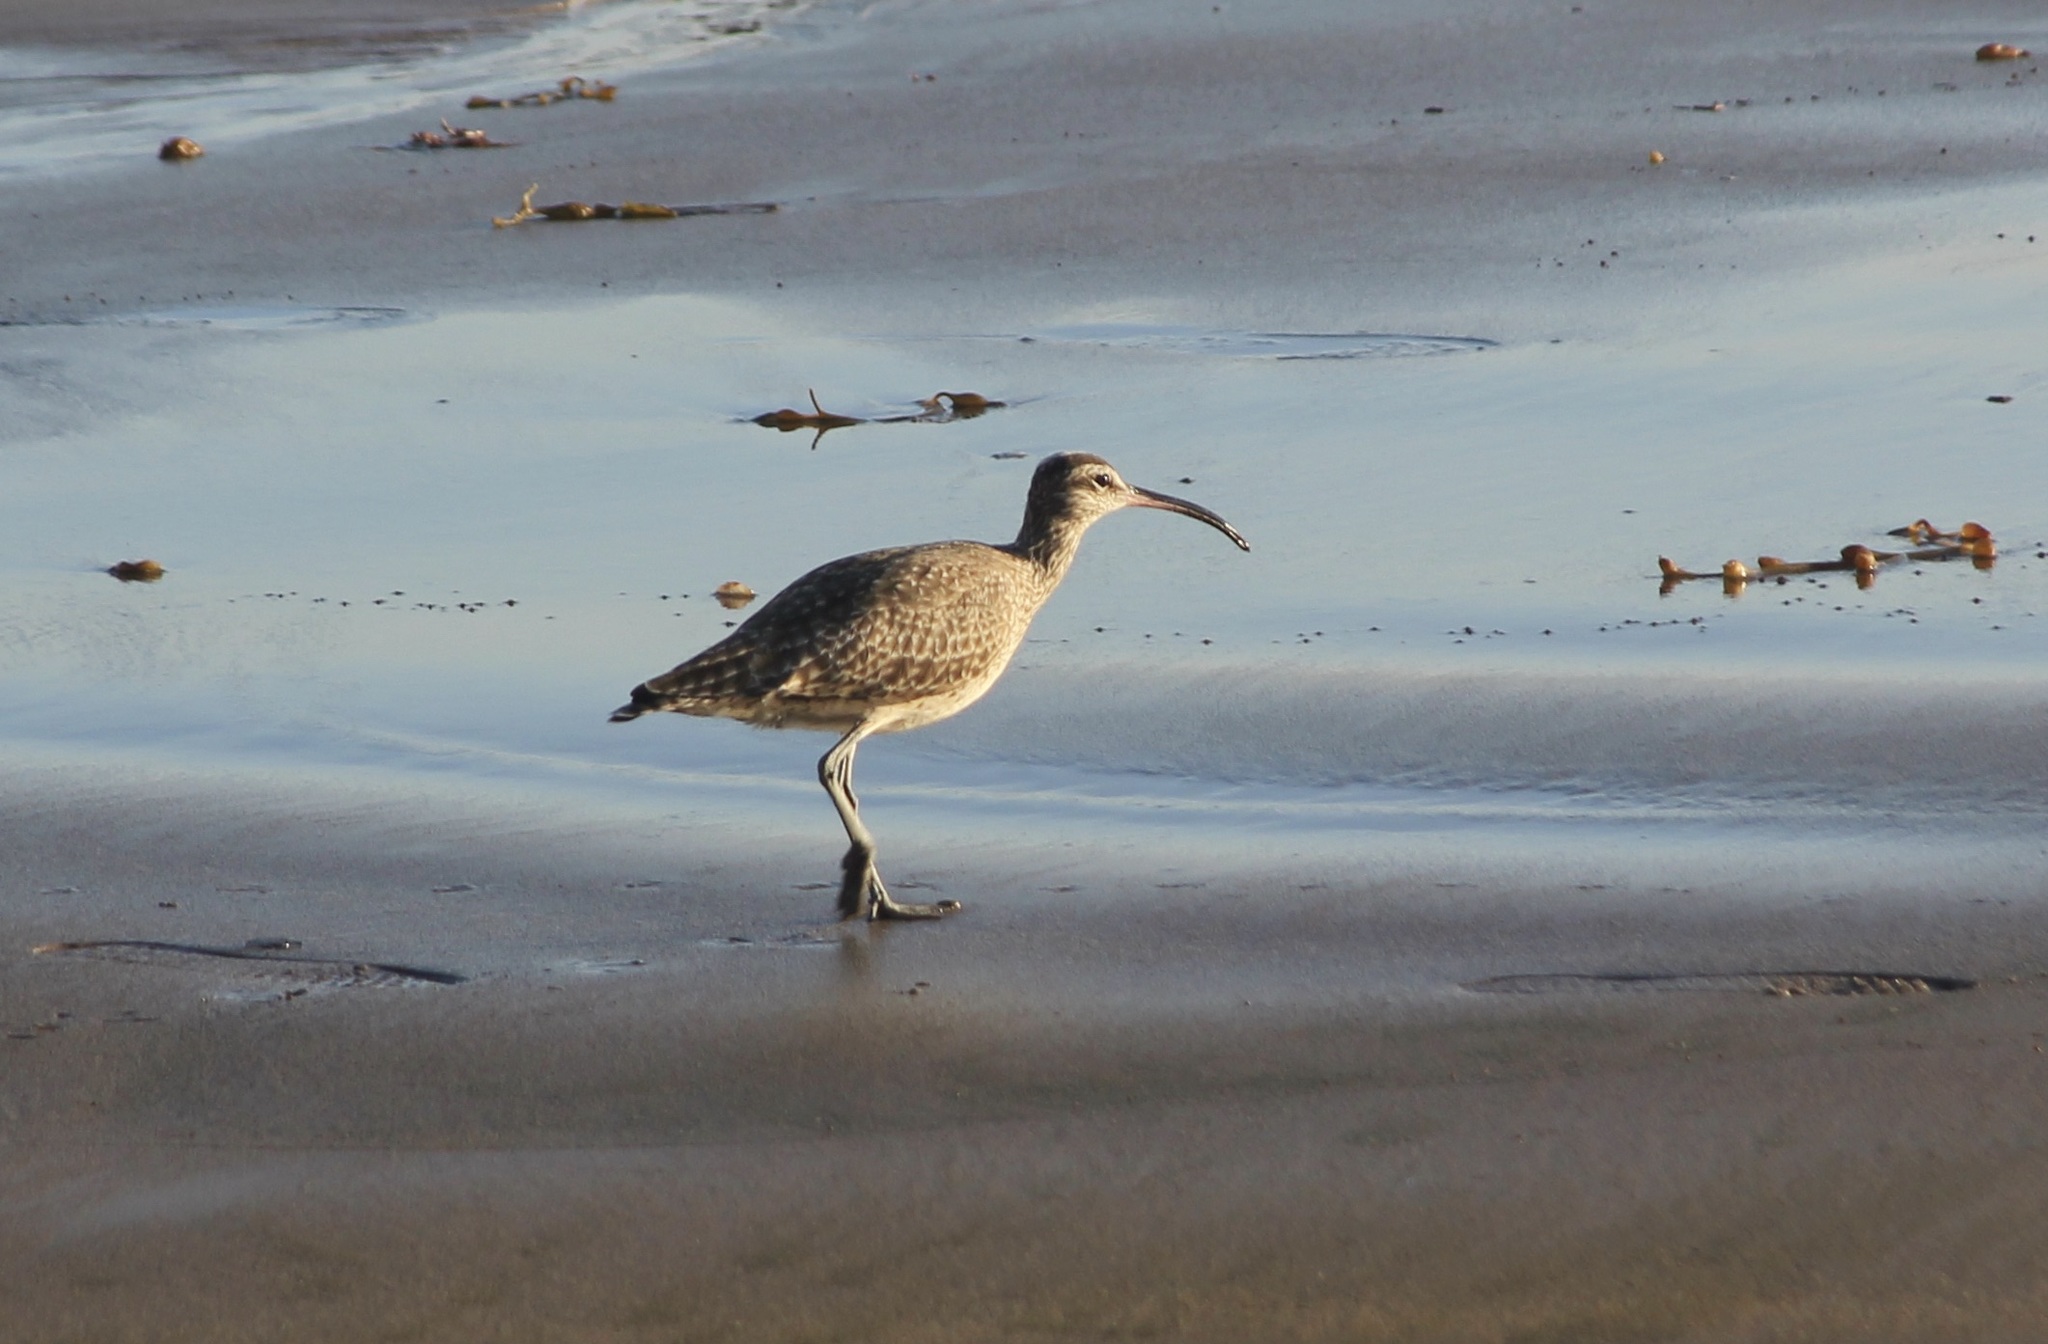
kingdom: Animalia
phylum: Chordata
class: Aves
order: Charadriiformes
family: Scolopacidae
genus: Numenius
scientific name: Numenius phaeopus
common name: Whimbrel
